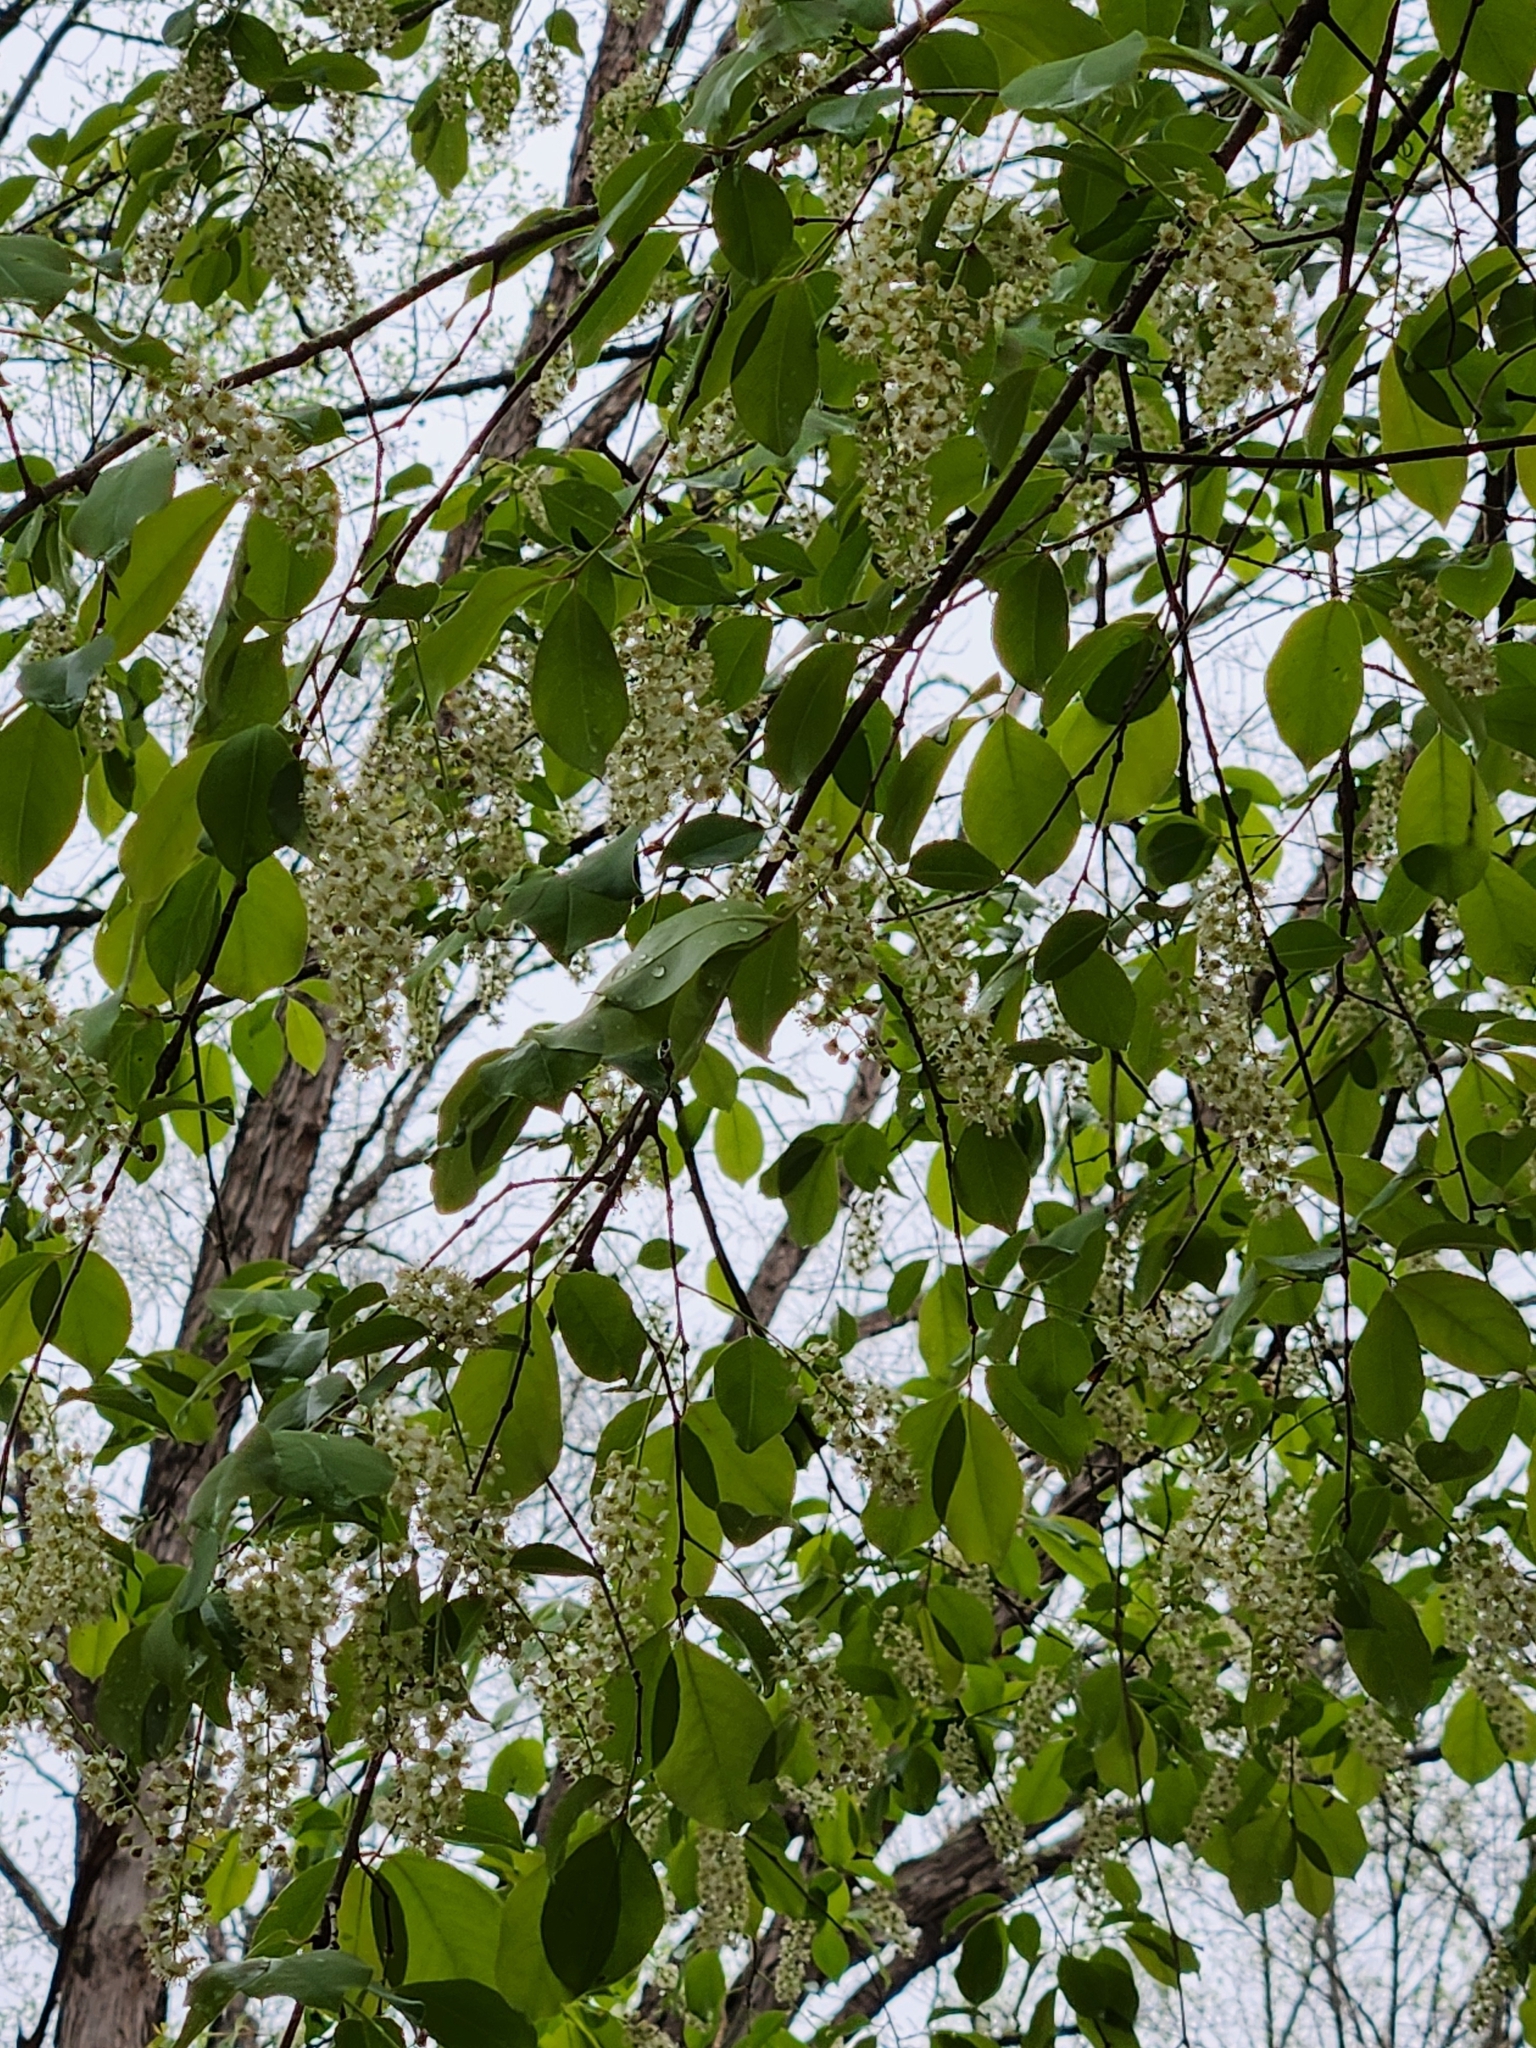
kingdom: Plantae
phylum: Tracheophyta
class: Magnoliopsida
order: Rosales
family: Rosaceae
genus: Prunus
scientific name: Prunus serotina
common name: Black cherry
